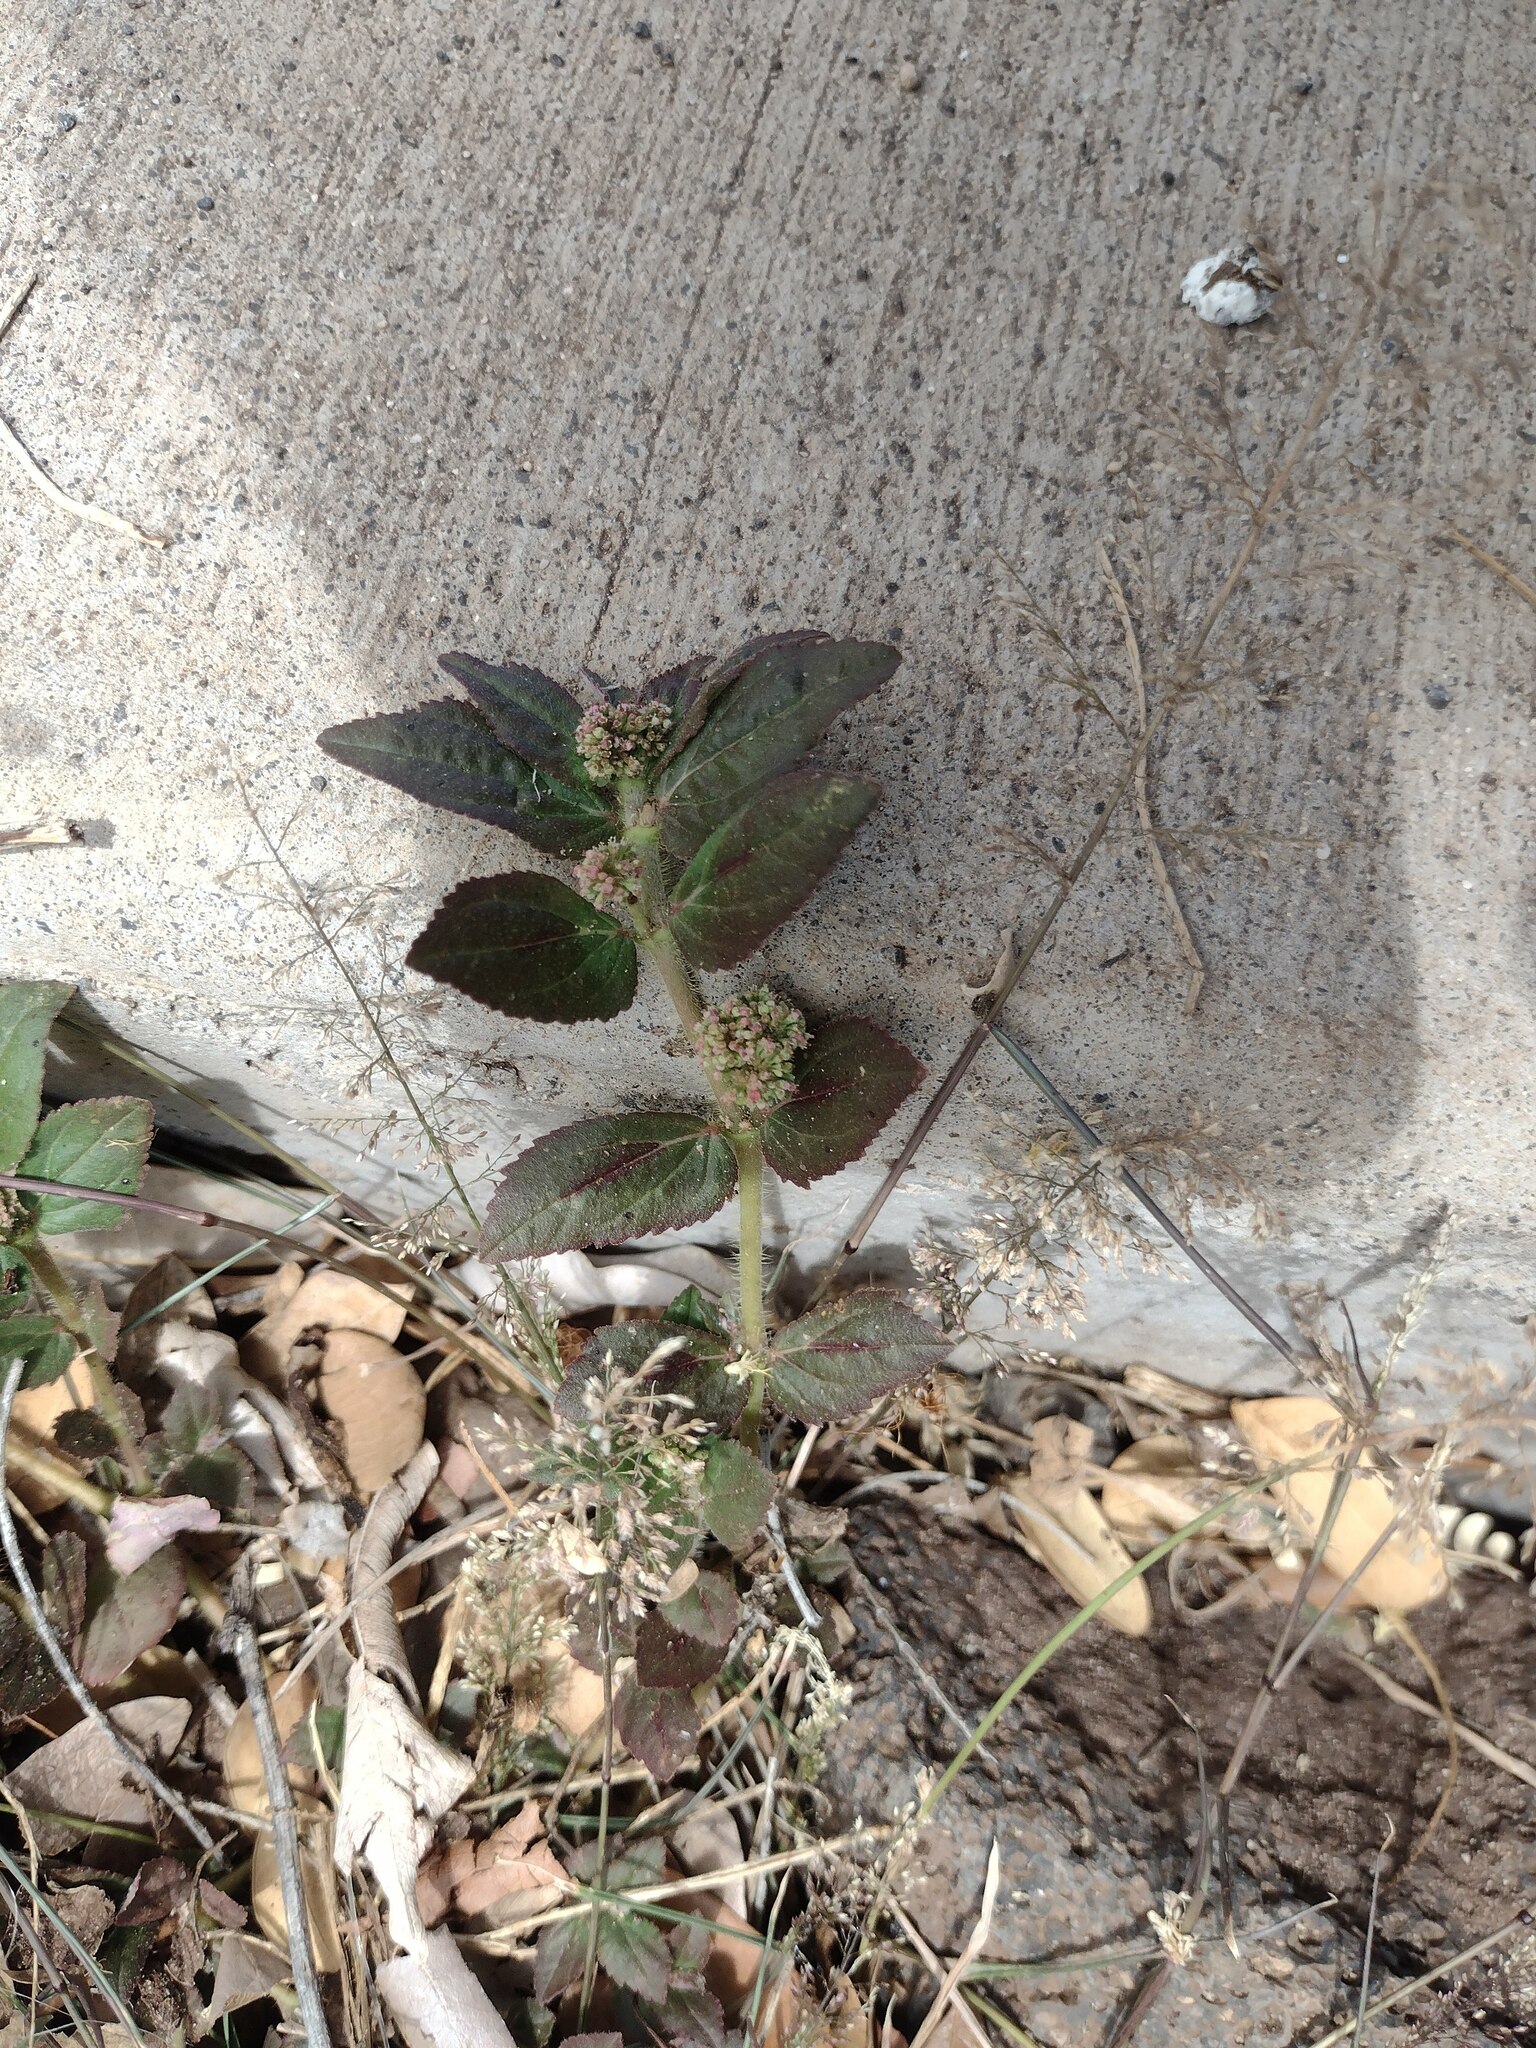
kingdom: Plantae
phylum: Tracheophyta
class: Magnoliopsida
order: Malpighiales
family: Euphorbiaceae
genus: Euphorbia
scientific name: Euphorbia hirta
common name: Pillpod sandmat
